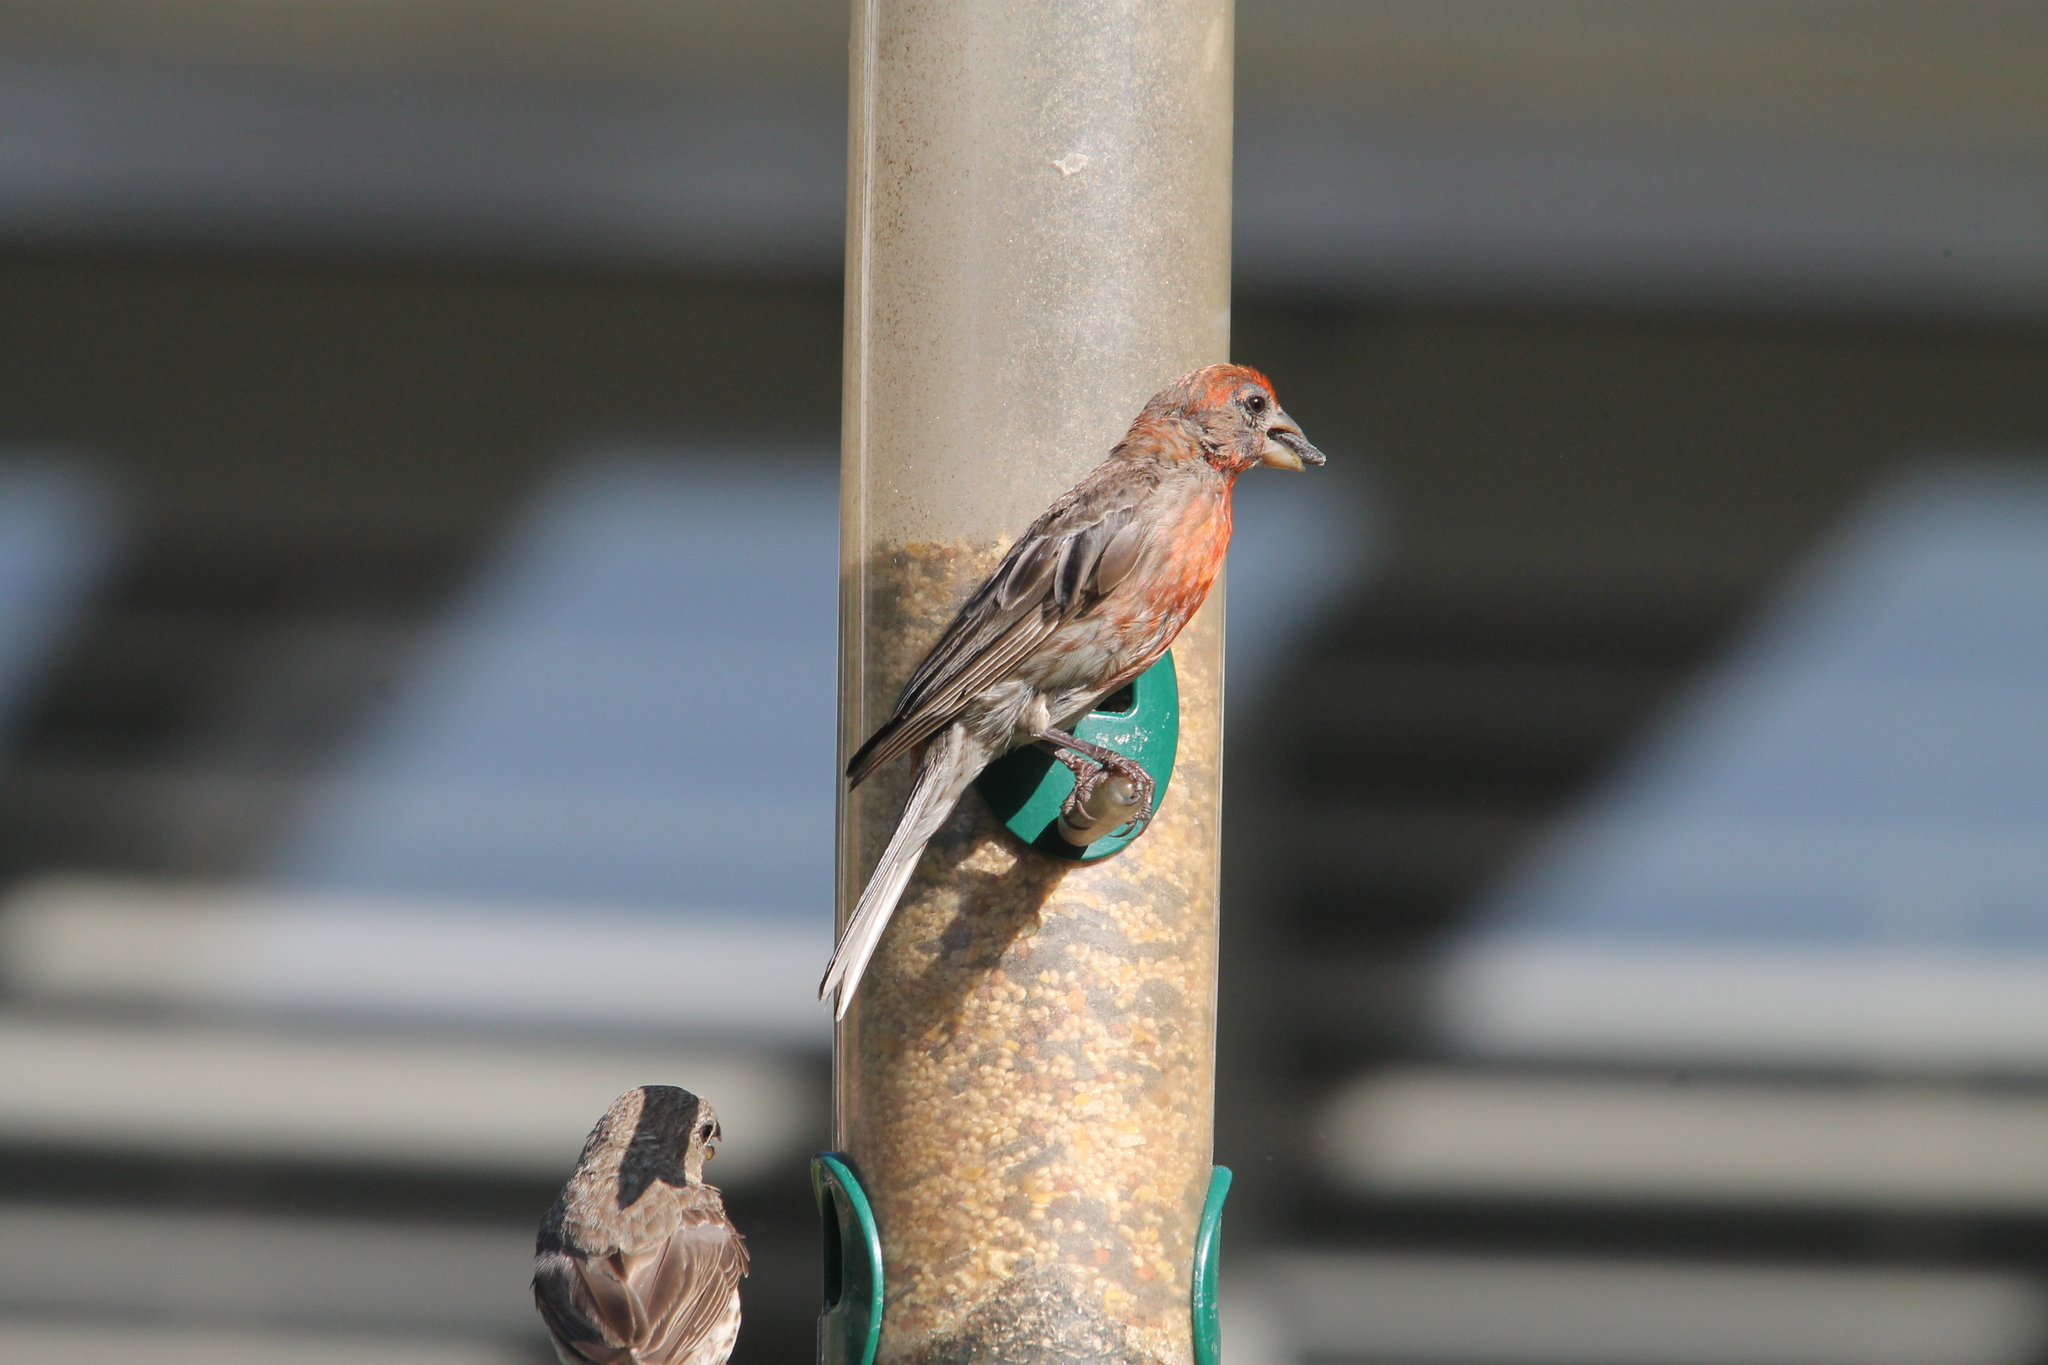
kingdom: Animalia
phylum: Chordata
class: Aves
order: Passeriformes
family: Fringillidae
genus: Haemorhous
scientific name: Haemorhous mexicanus
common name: House finch
